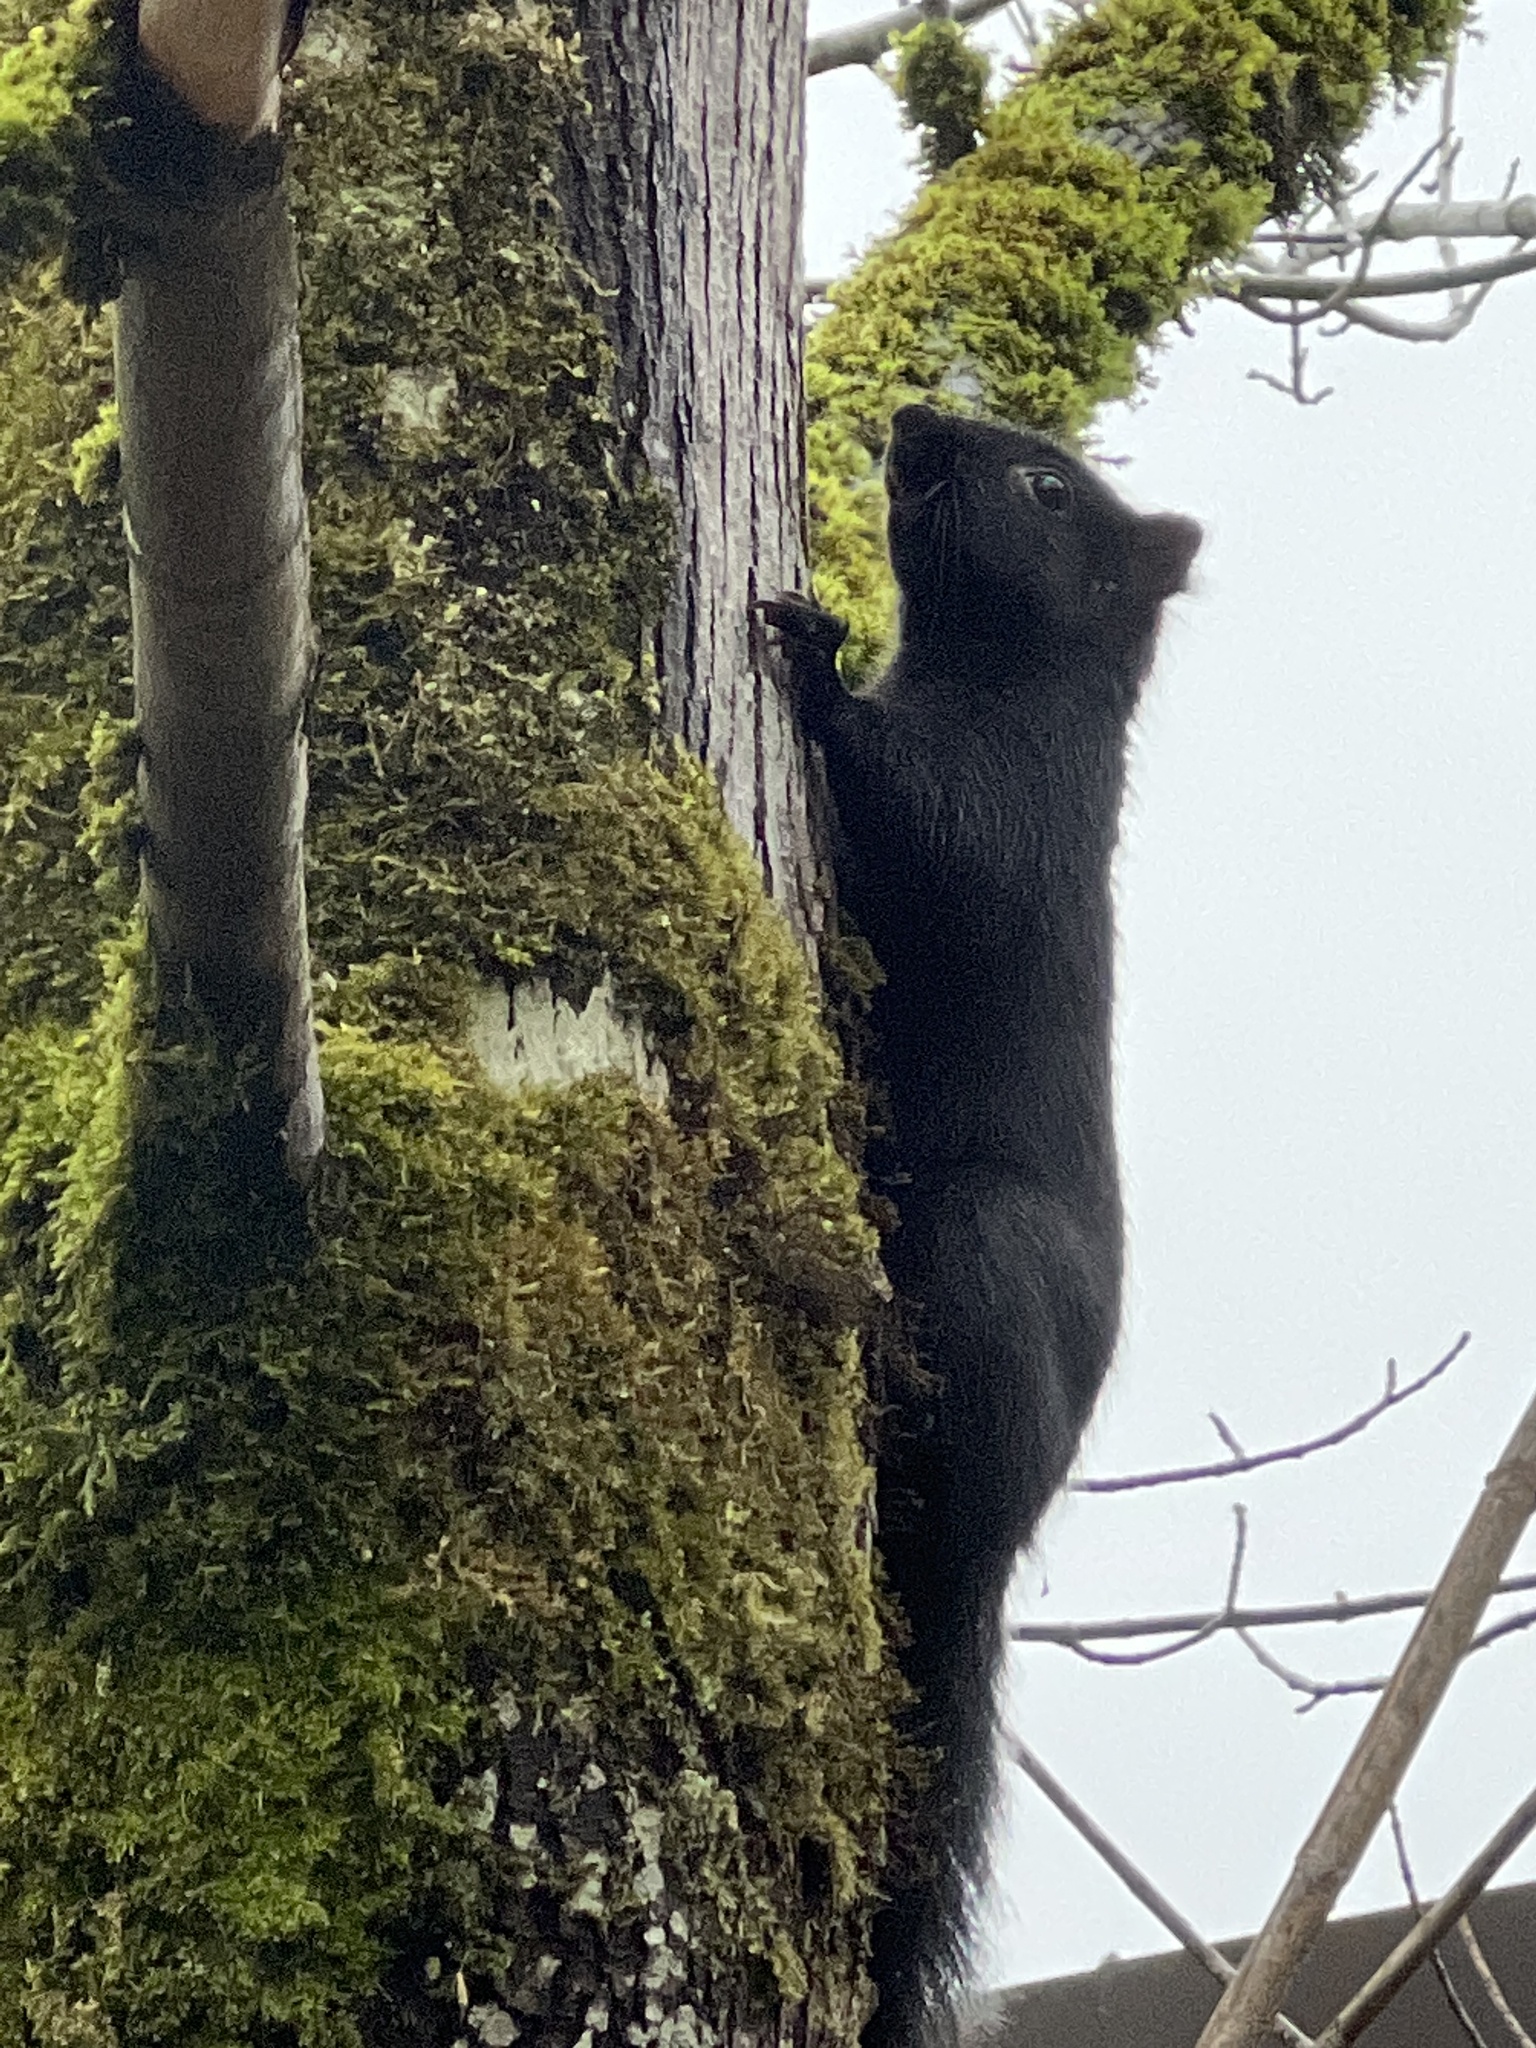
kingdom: Animalia
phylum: Chordata
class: Mammalia
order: Rodentia
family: Sciuridae
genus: Sciurus
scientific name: Sciurus carolinensis
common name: Eastern gray squirrel
